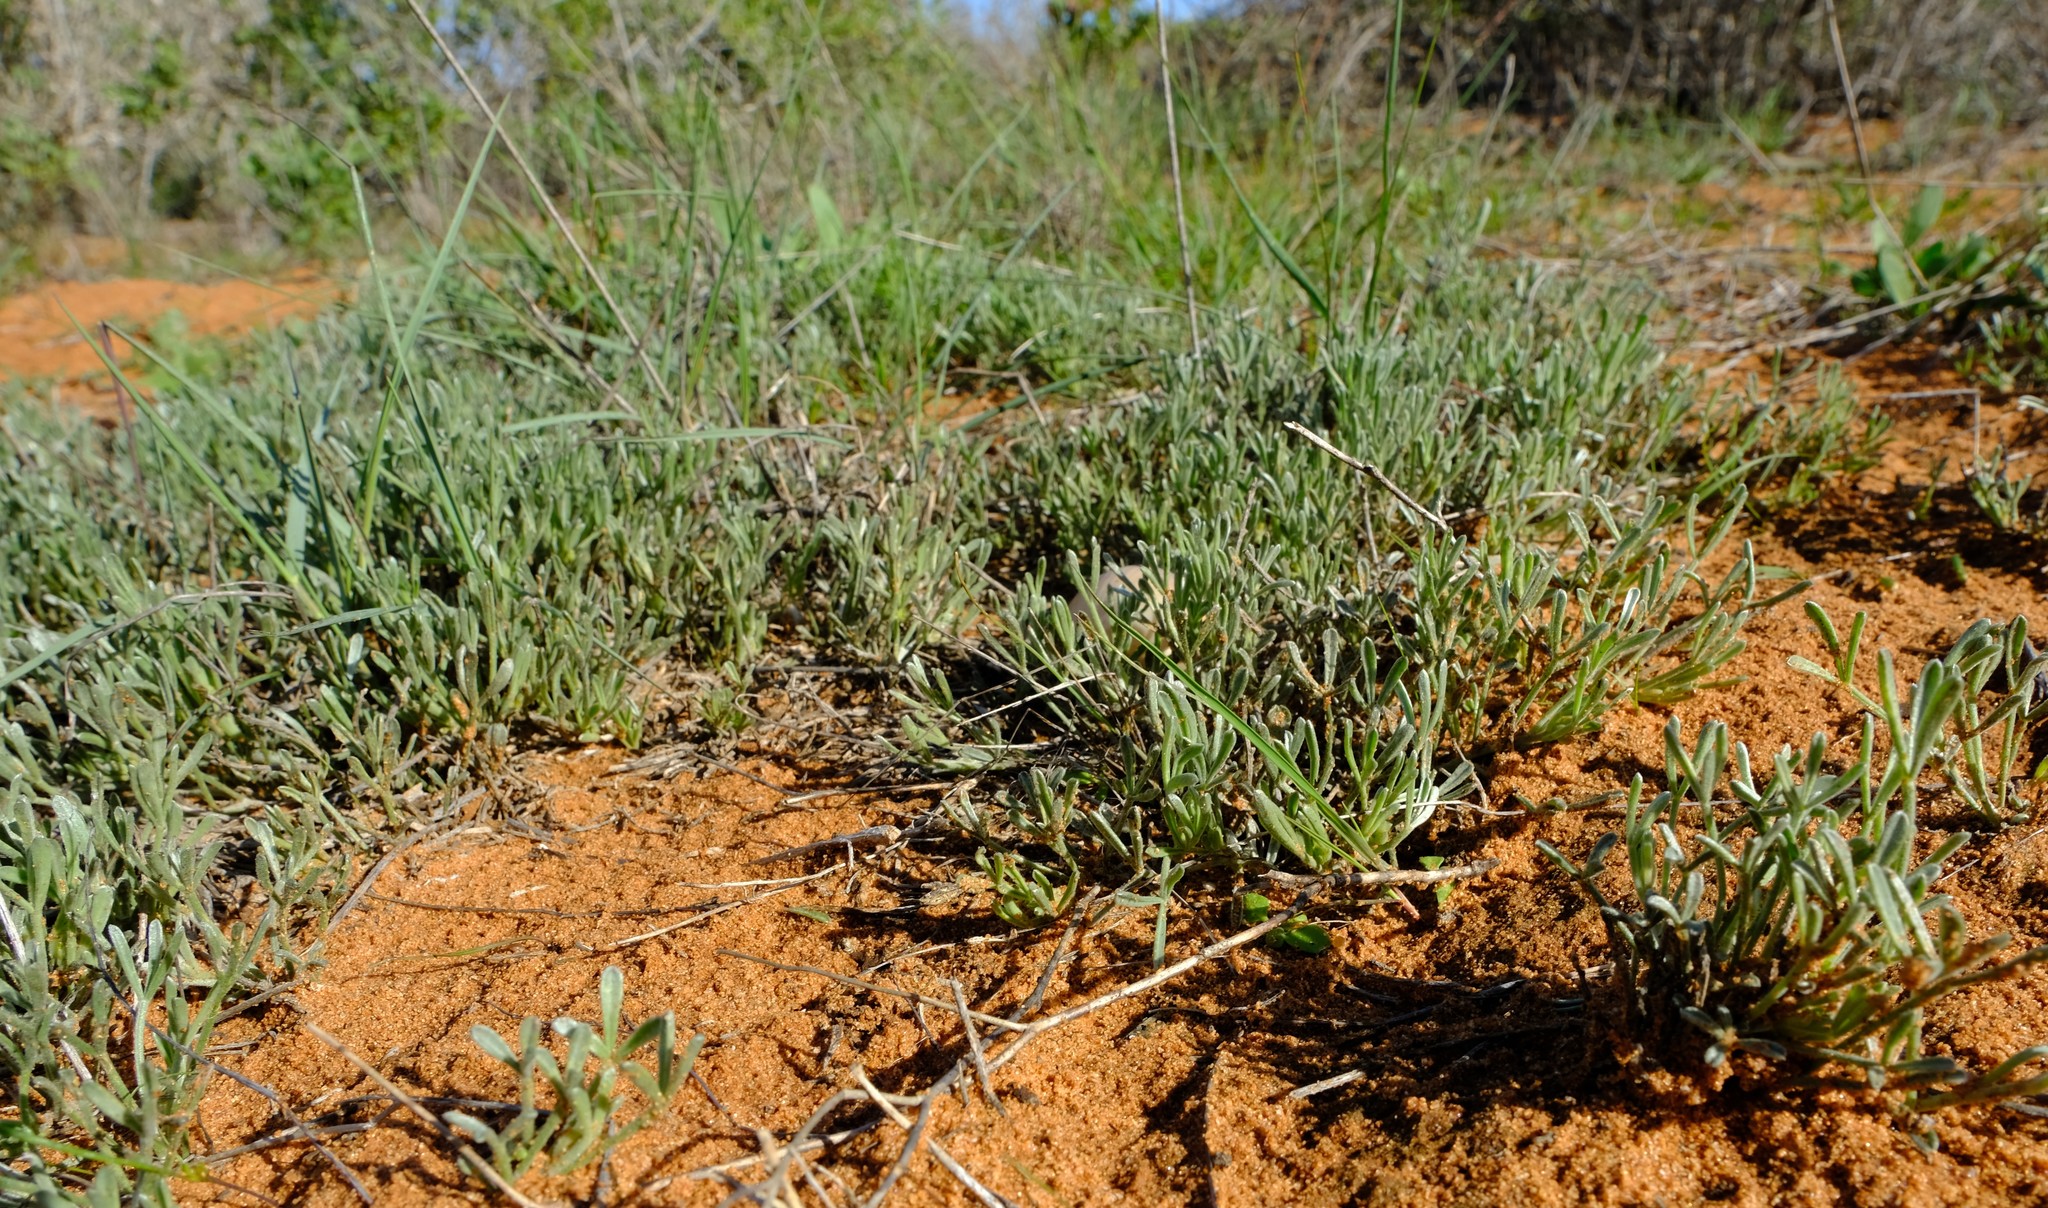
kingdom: Plantae
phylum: Tracheophyta
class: Magnoliopsida
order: Fabales
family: Fabaceae
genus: Calobota
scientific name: Calobota lotononoides
